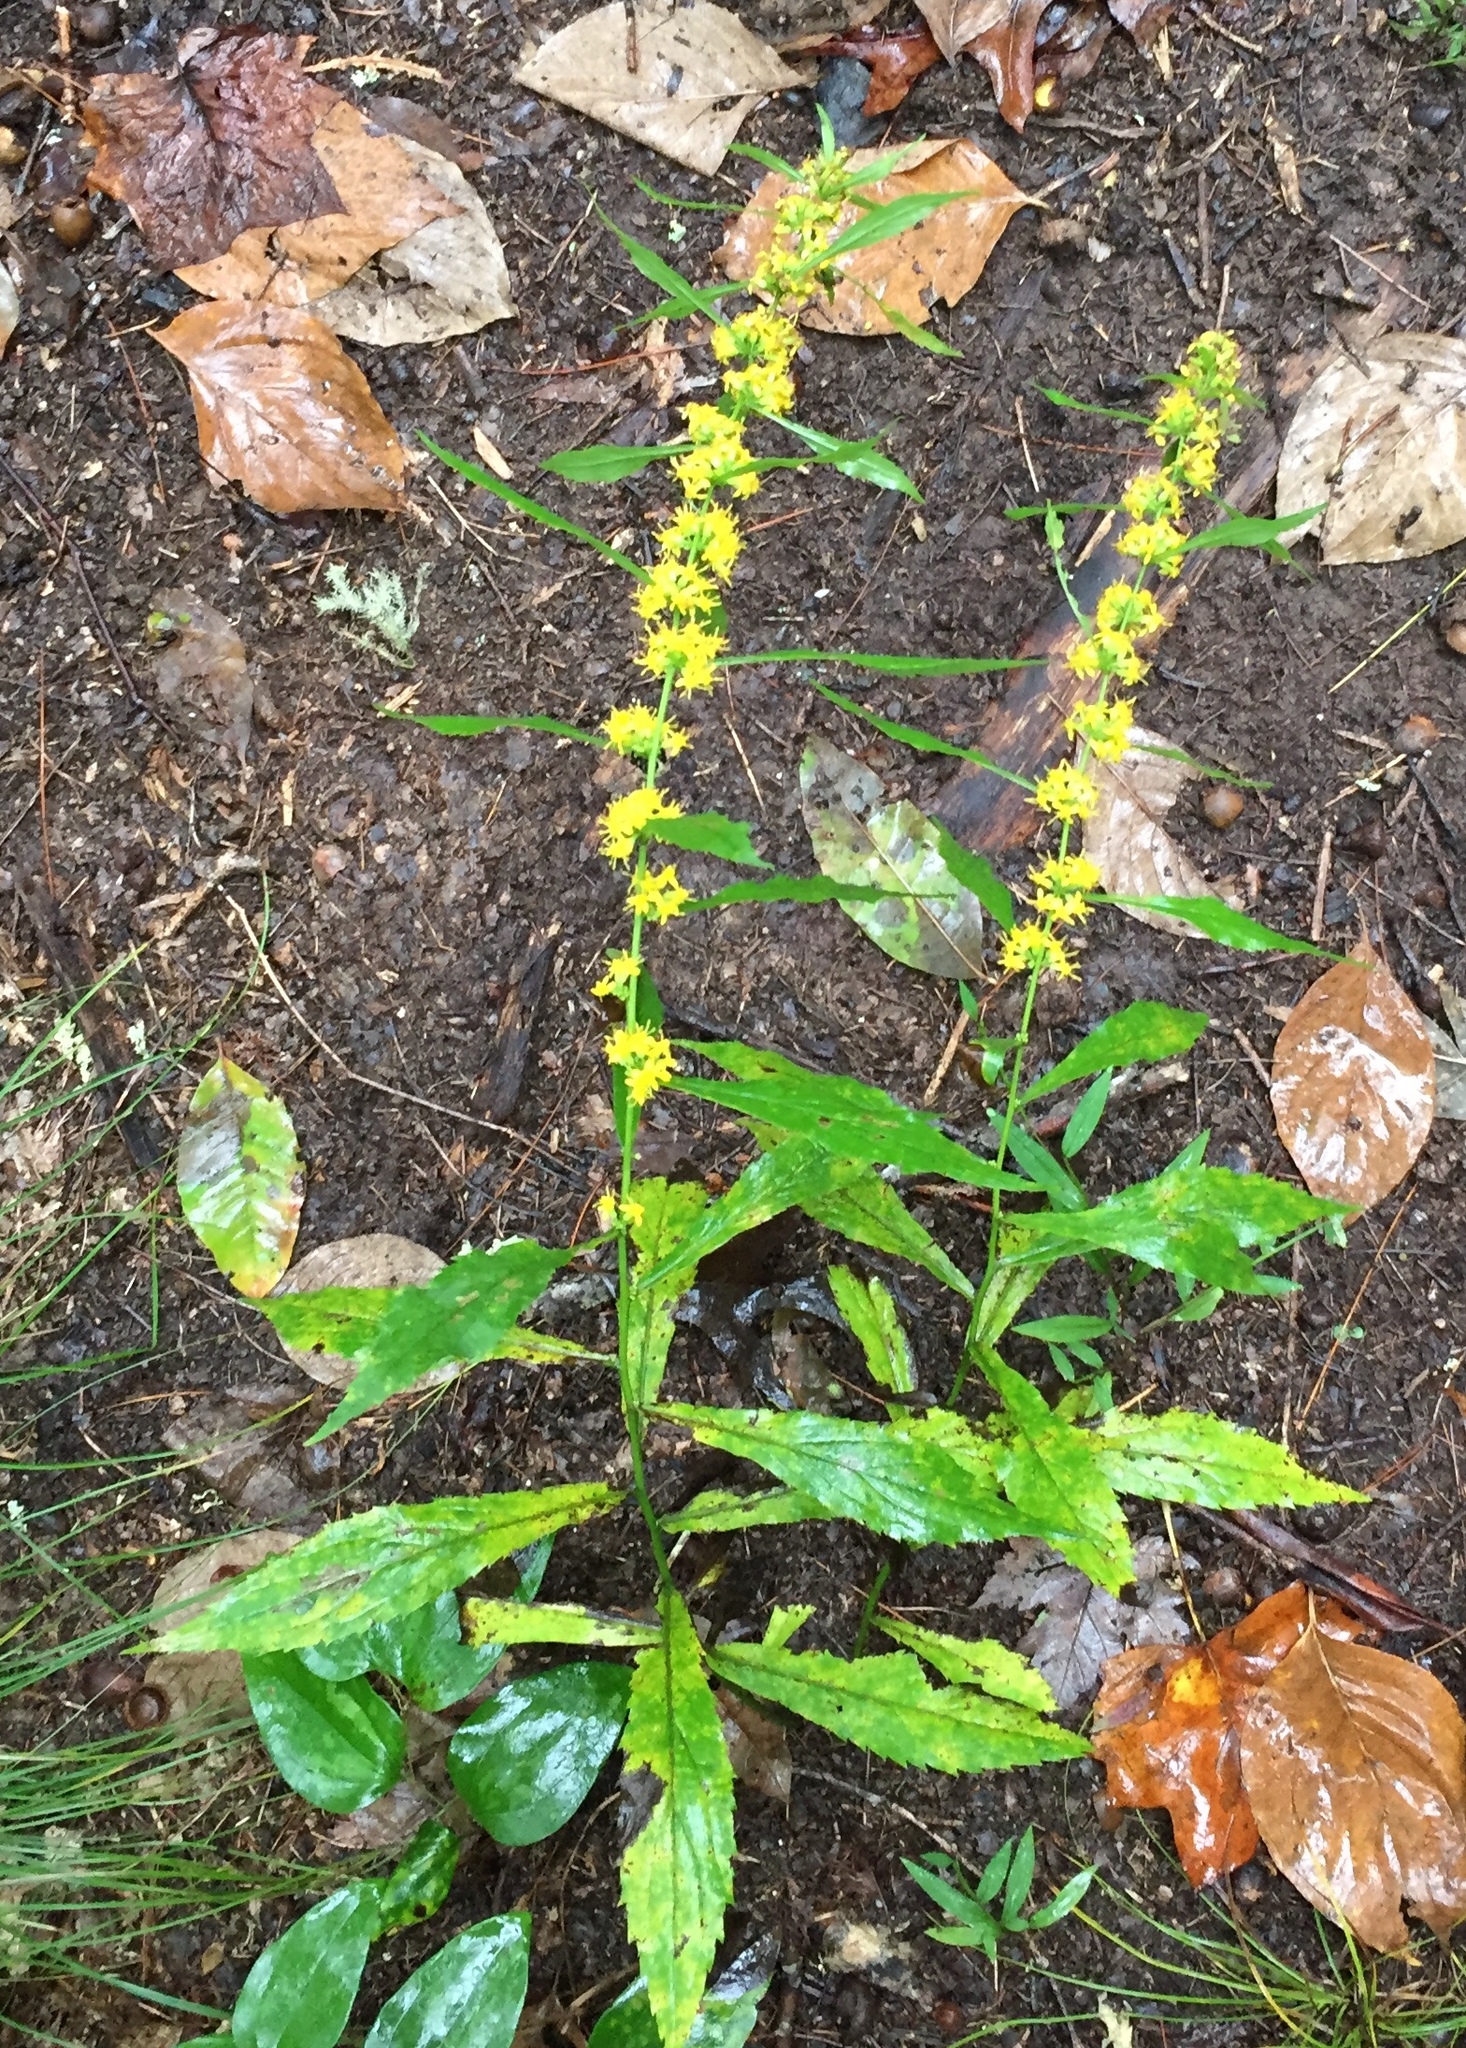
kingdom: Plantae
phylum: Tracheophyta
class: Magnoliopsida
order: Asterales
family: Asteraceae
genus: Solidago
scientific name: Solidago curtisii
